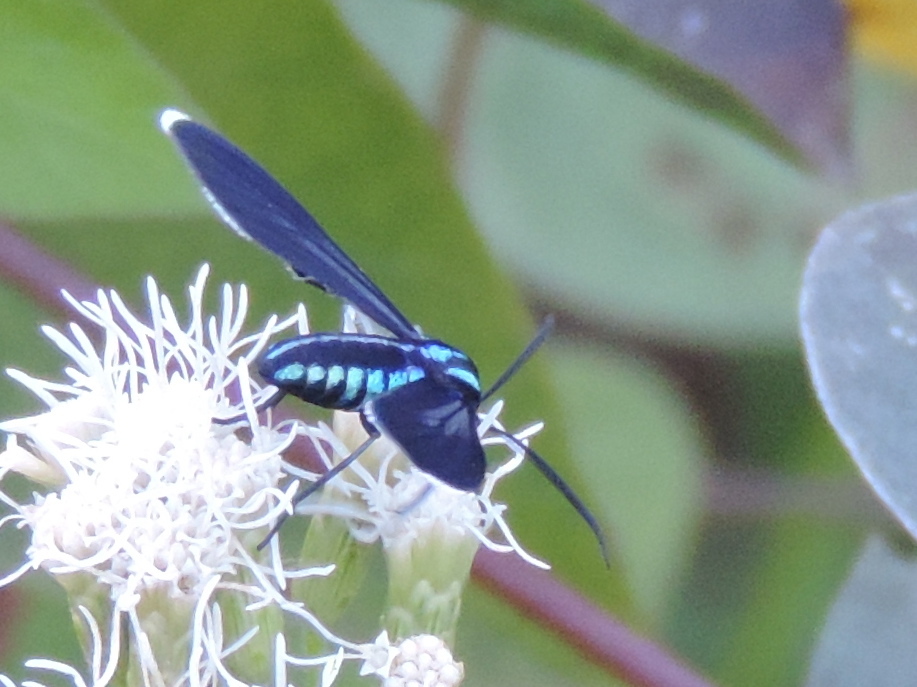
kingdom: Animalia
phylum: Arthropoda
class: Insecta
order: Lepidoptera
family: Erebidae
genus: Uranophora
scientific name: Uranophora leucotela
